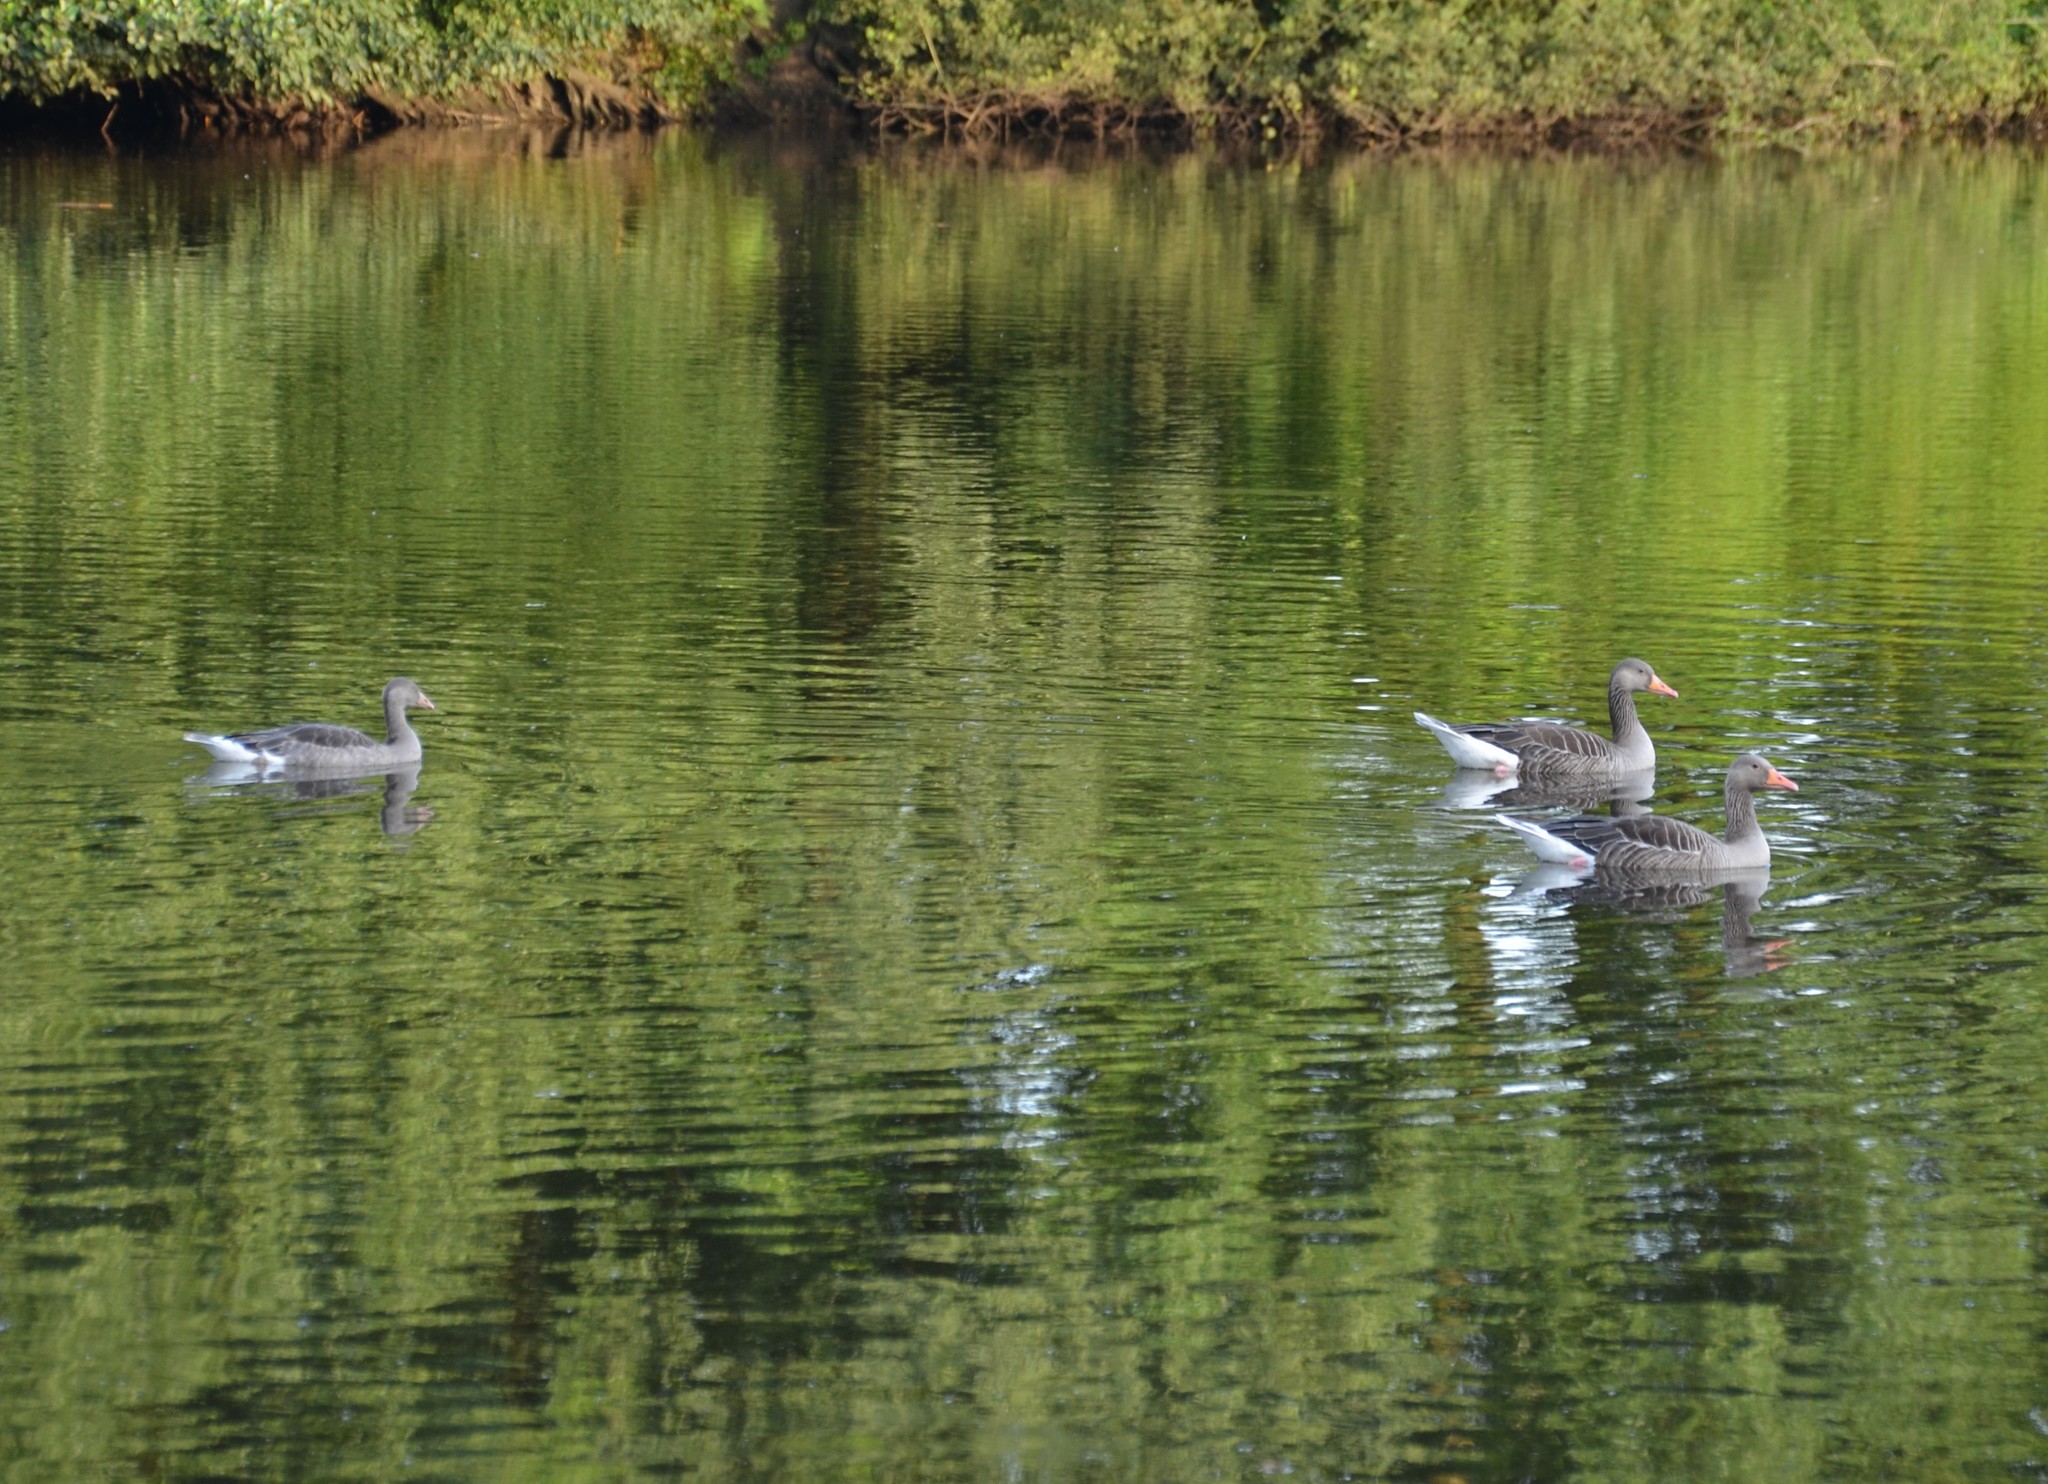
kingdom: Animalia
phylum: Chordata
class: Aves
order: Anseriformes
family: Anatidae
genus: Anser
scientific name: Anser anser
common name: Greylag goose
